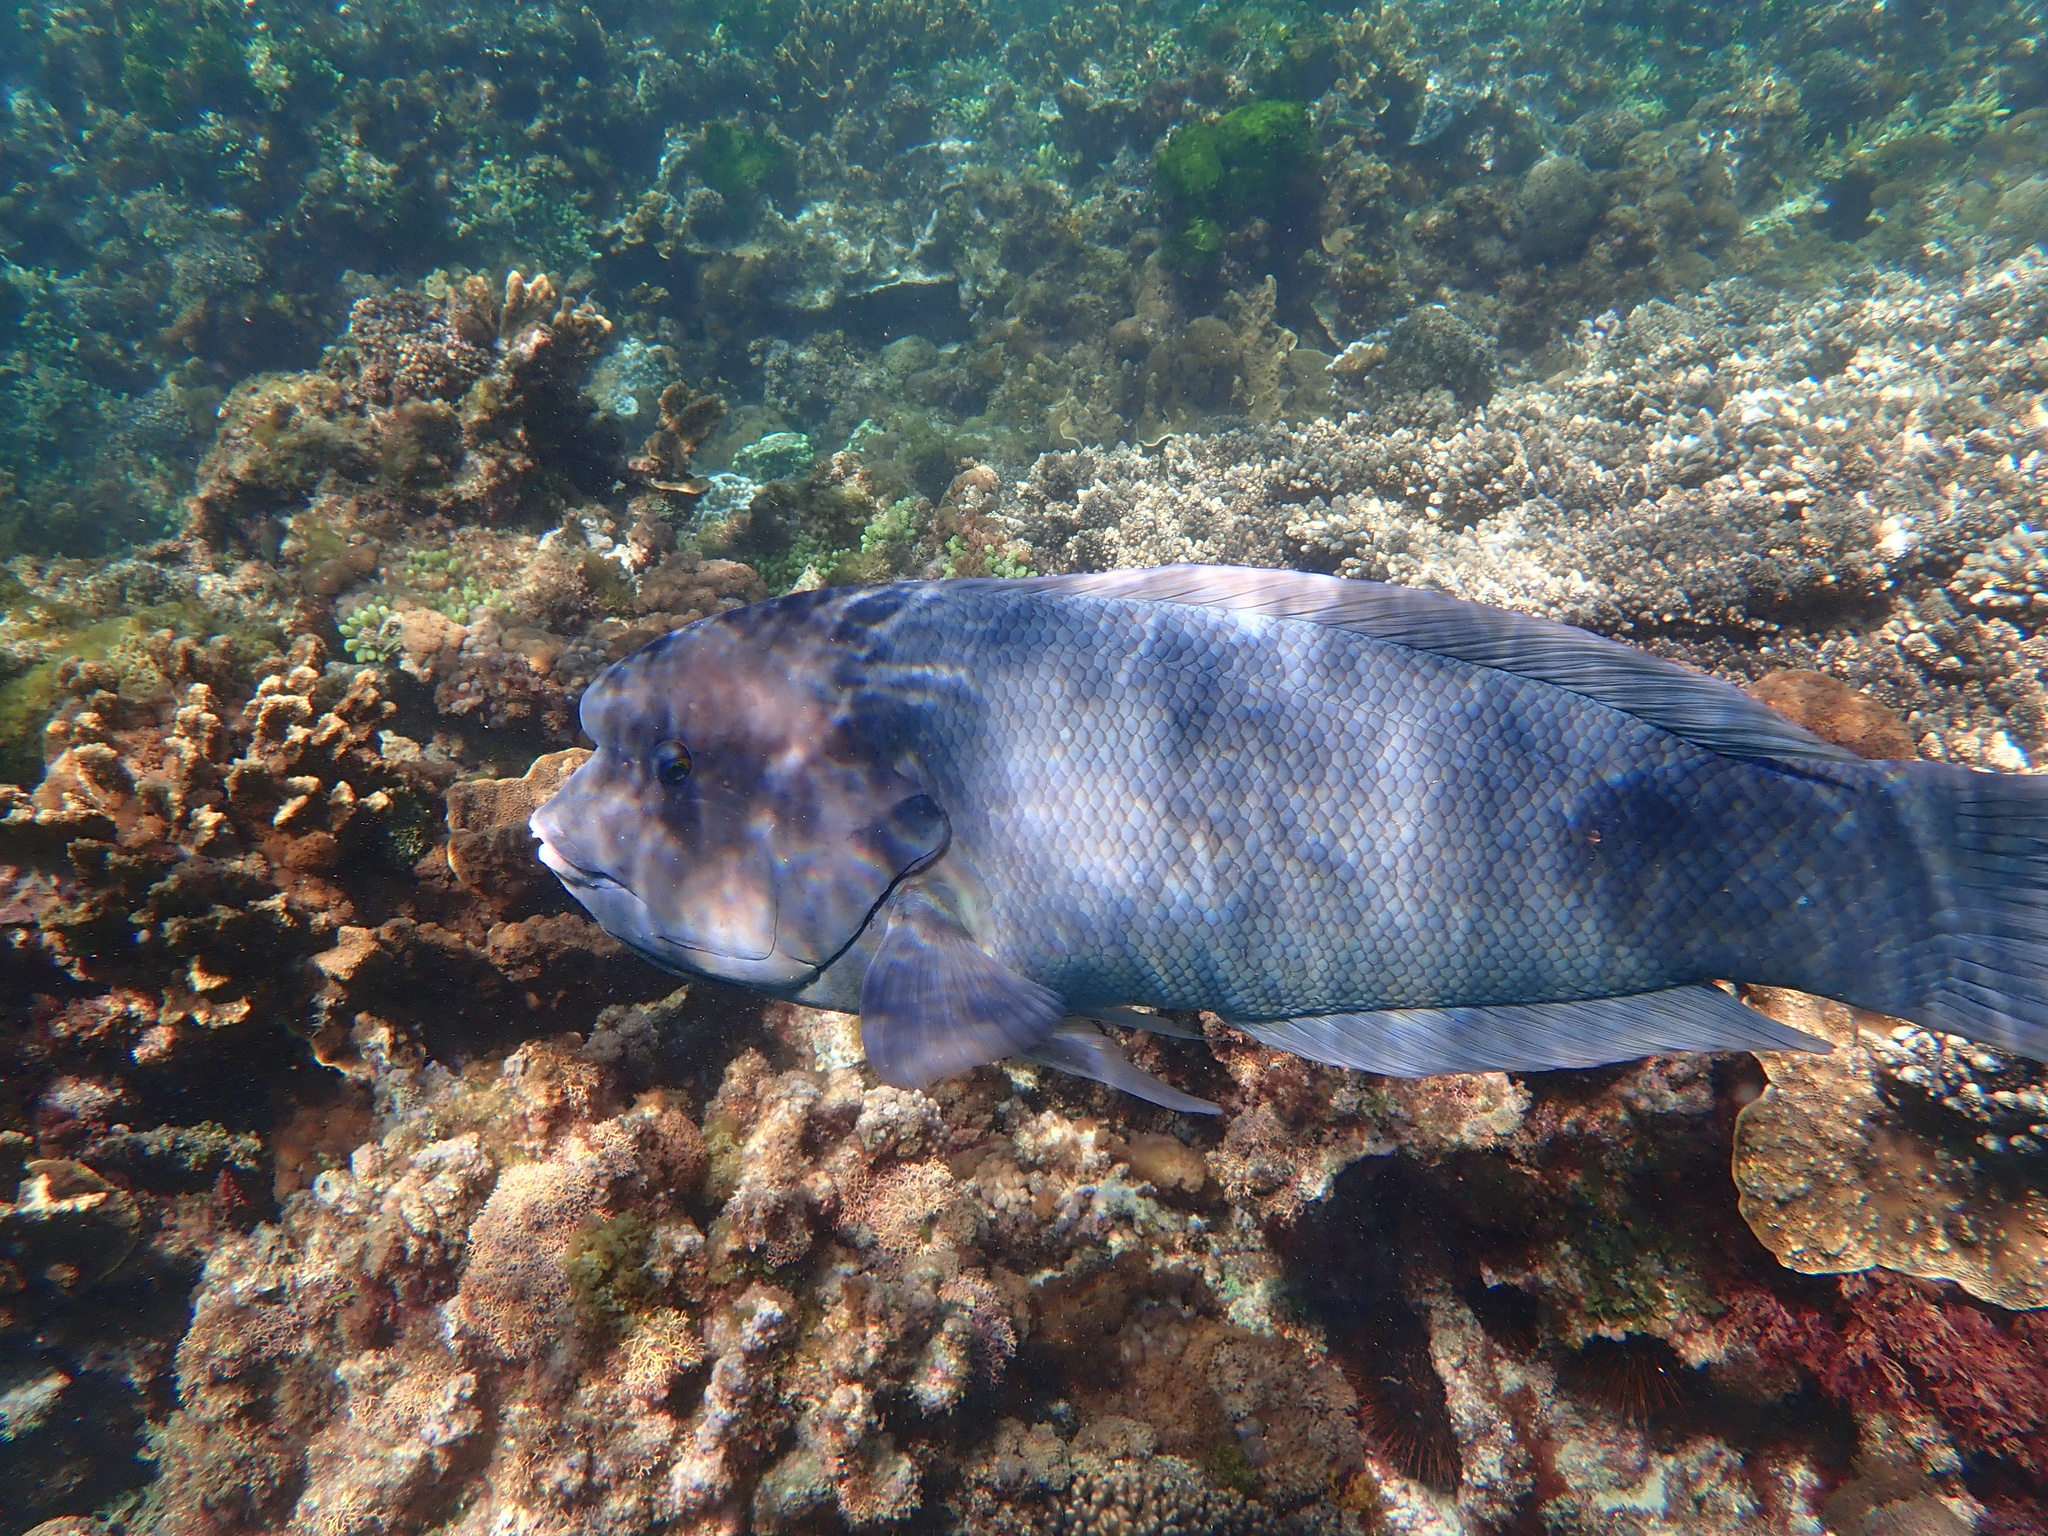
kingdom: Animalia
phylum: Chordata
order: Perciformes
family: Labridae
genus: Coris
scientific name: Coris bulbifrons
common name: Doubleheader
